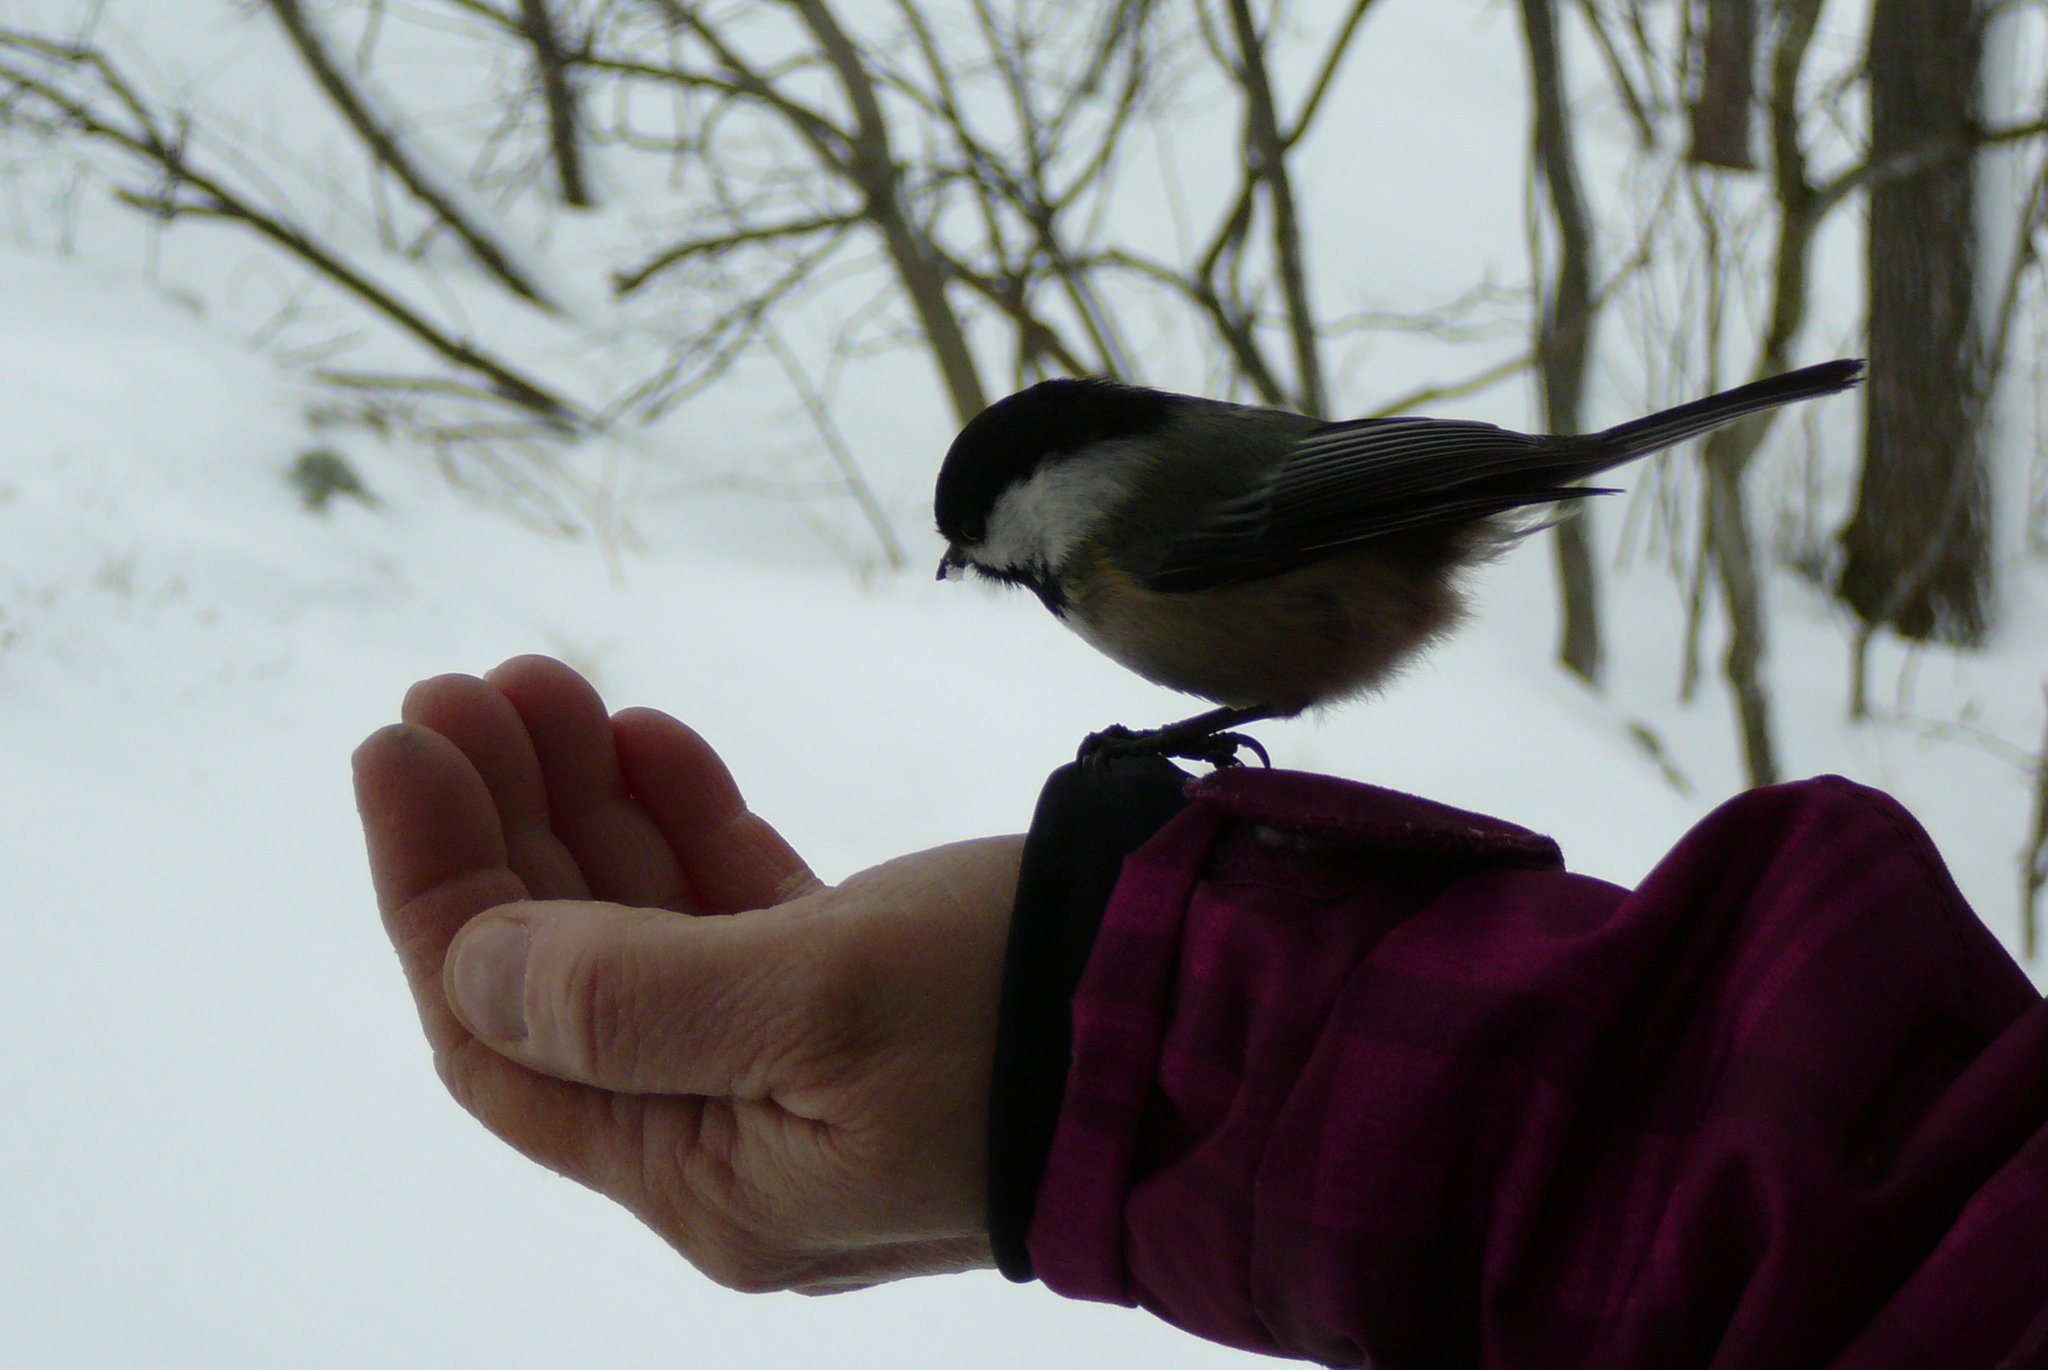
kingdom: Animalia
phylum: Chordata
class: Aves
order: Passeriformes
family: Paridae
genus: Poecile
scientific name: Poecile atricapillus
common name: Black-capped chickadee
